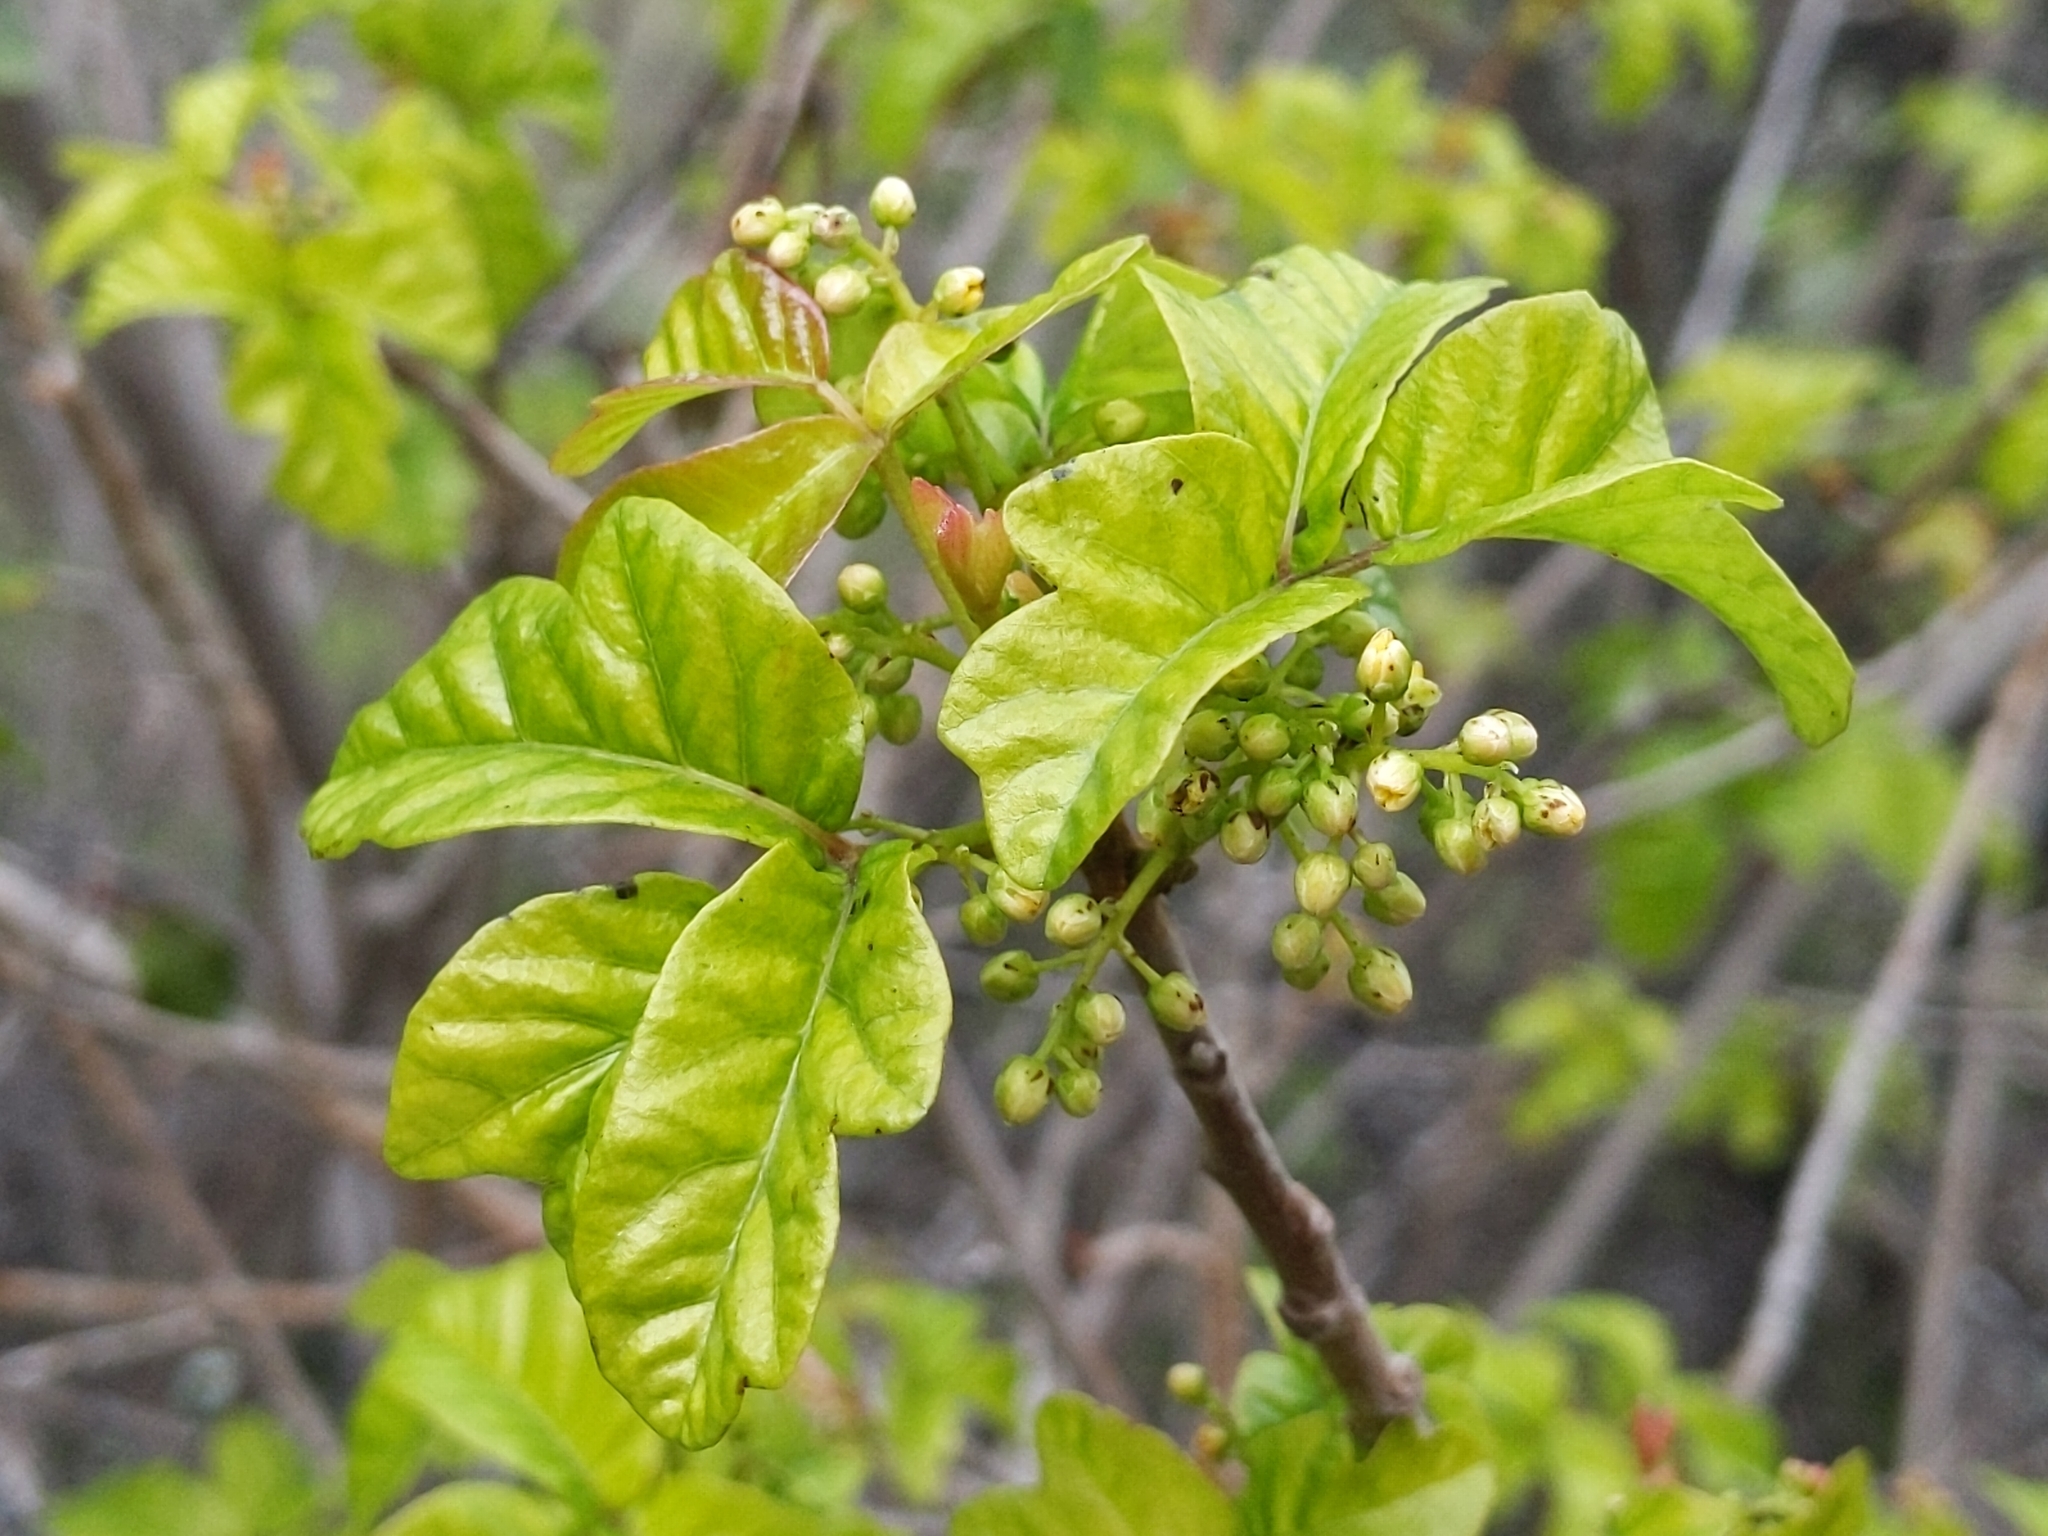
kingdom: Plantae
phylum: Tracheophyta
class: Magnoliopsida
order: Sapindales
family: Anacardiaceae
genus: Toxicodendron
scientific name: Toxicodendron diversilobum
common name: Pacific poison-oak
